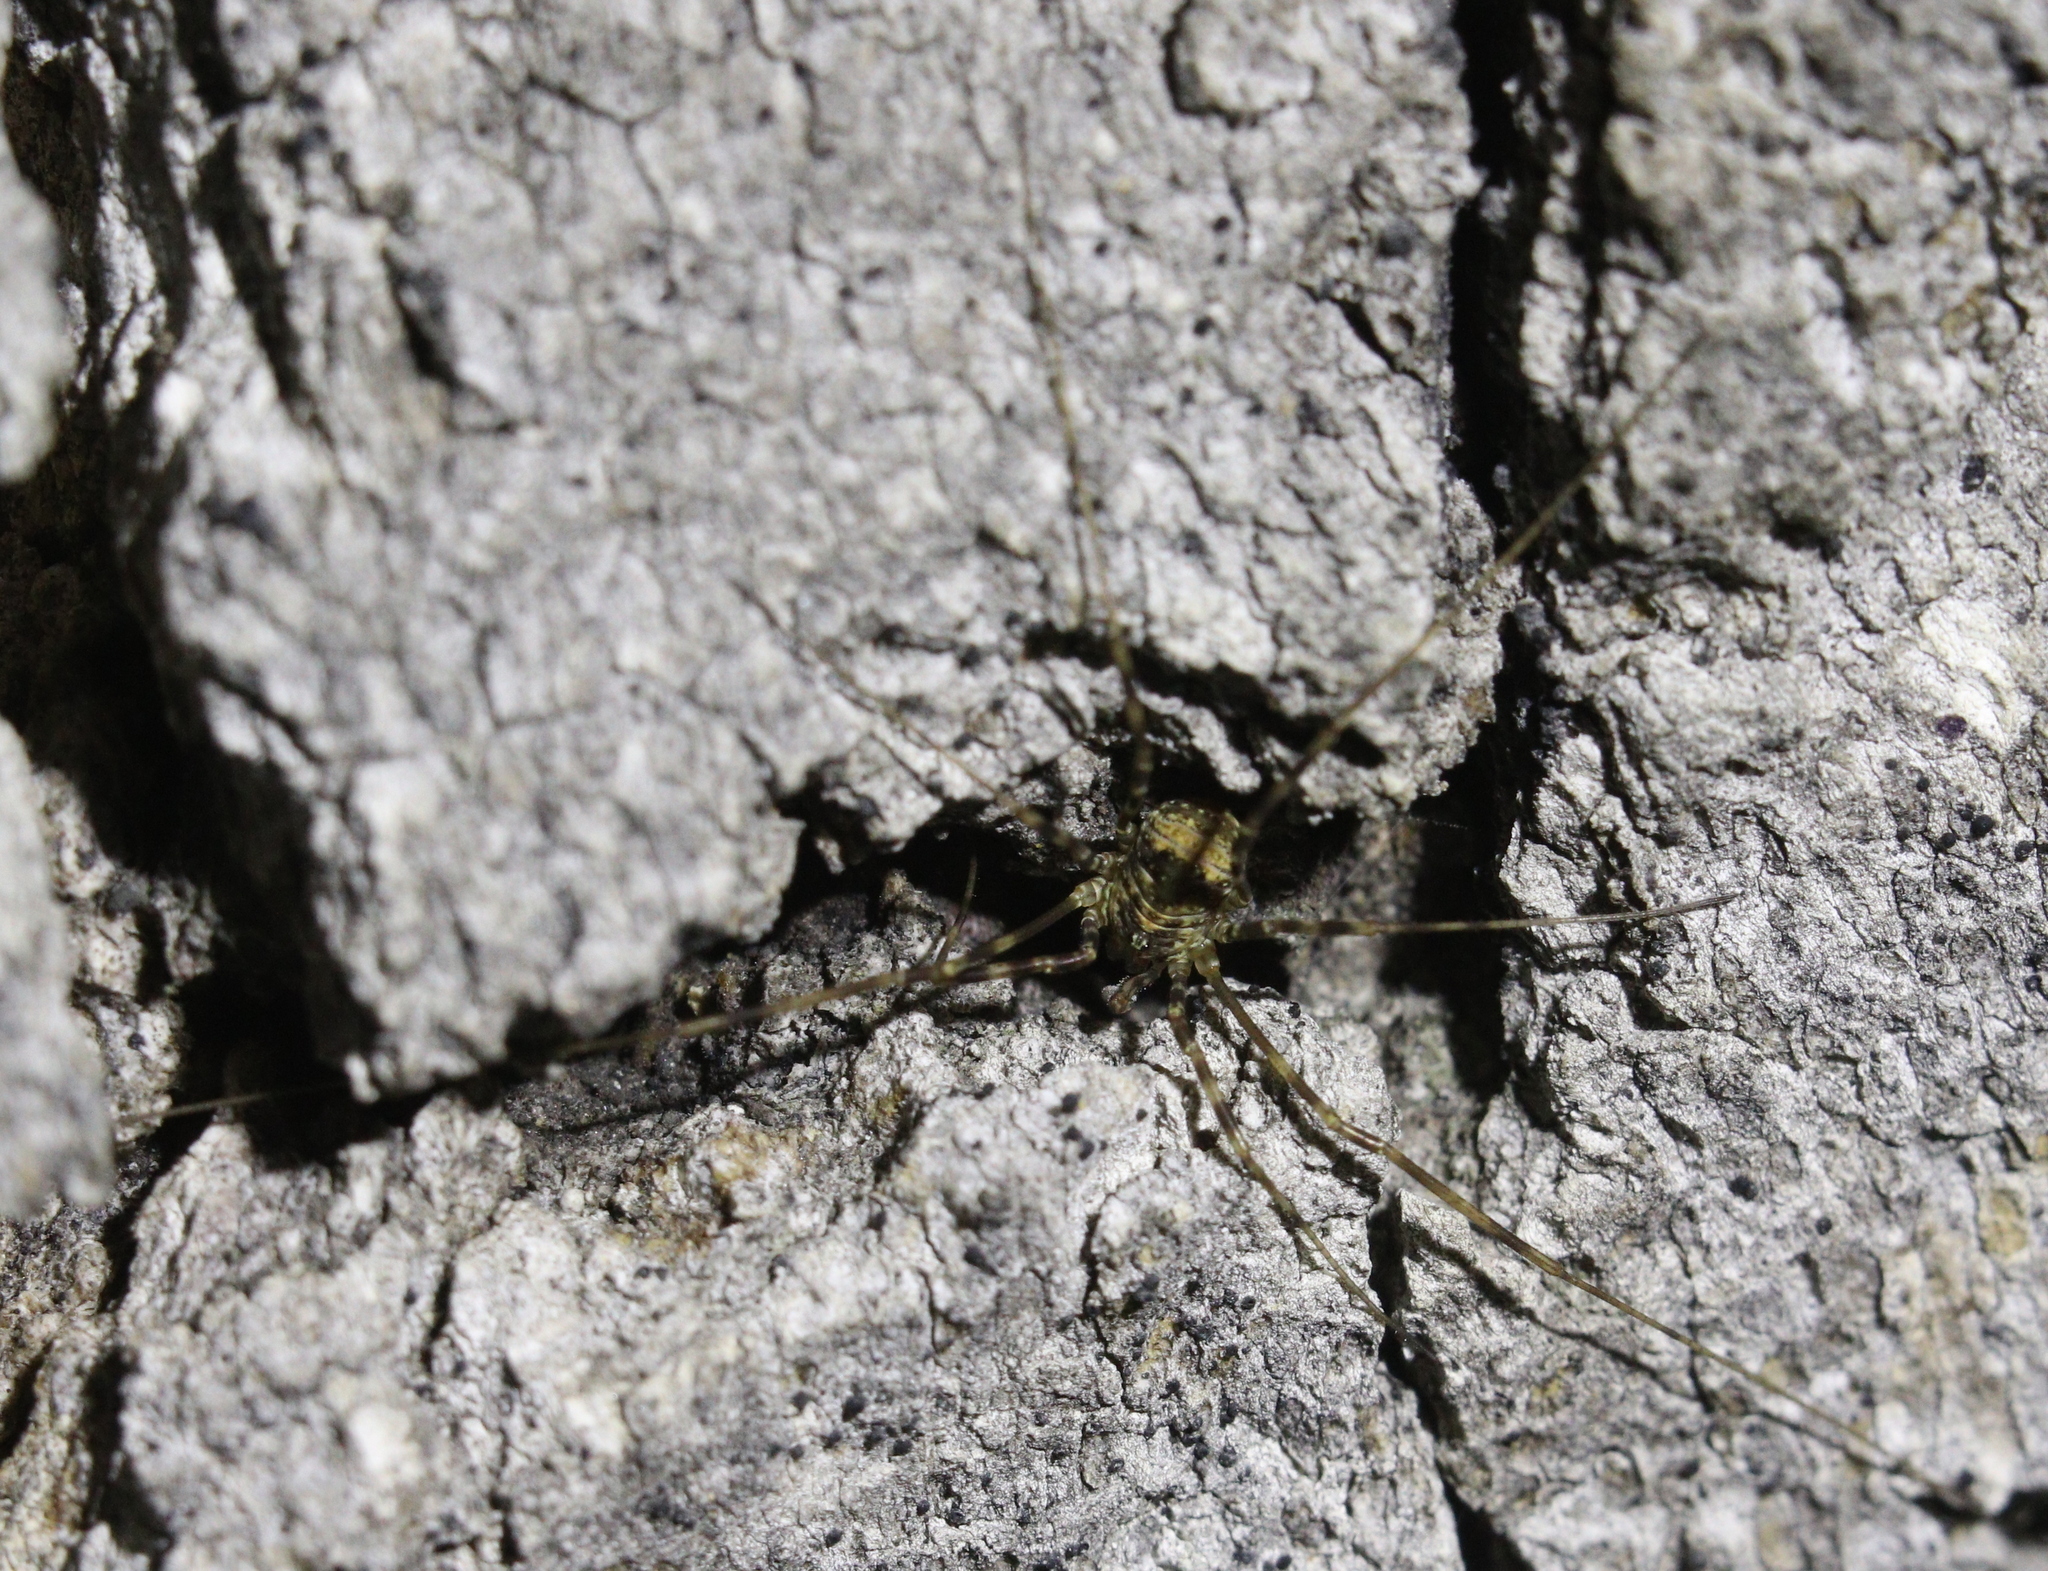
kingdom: Animalia
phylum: Arthropoda
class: Arachnida
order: Opiliones
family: Phalangiidae
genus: Dicranopalpus
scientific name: Dicranopalpus martini
